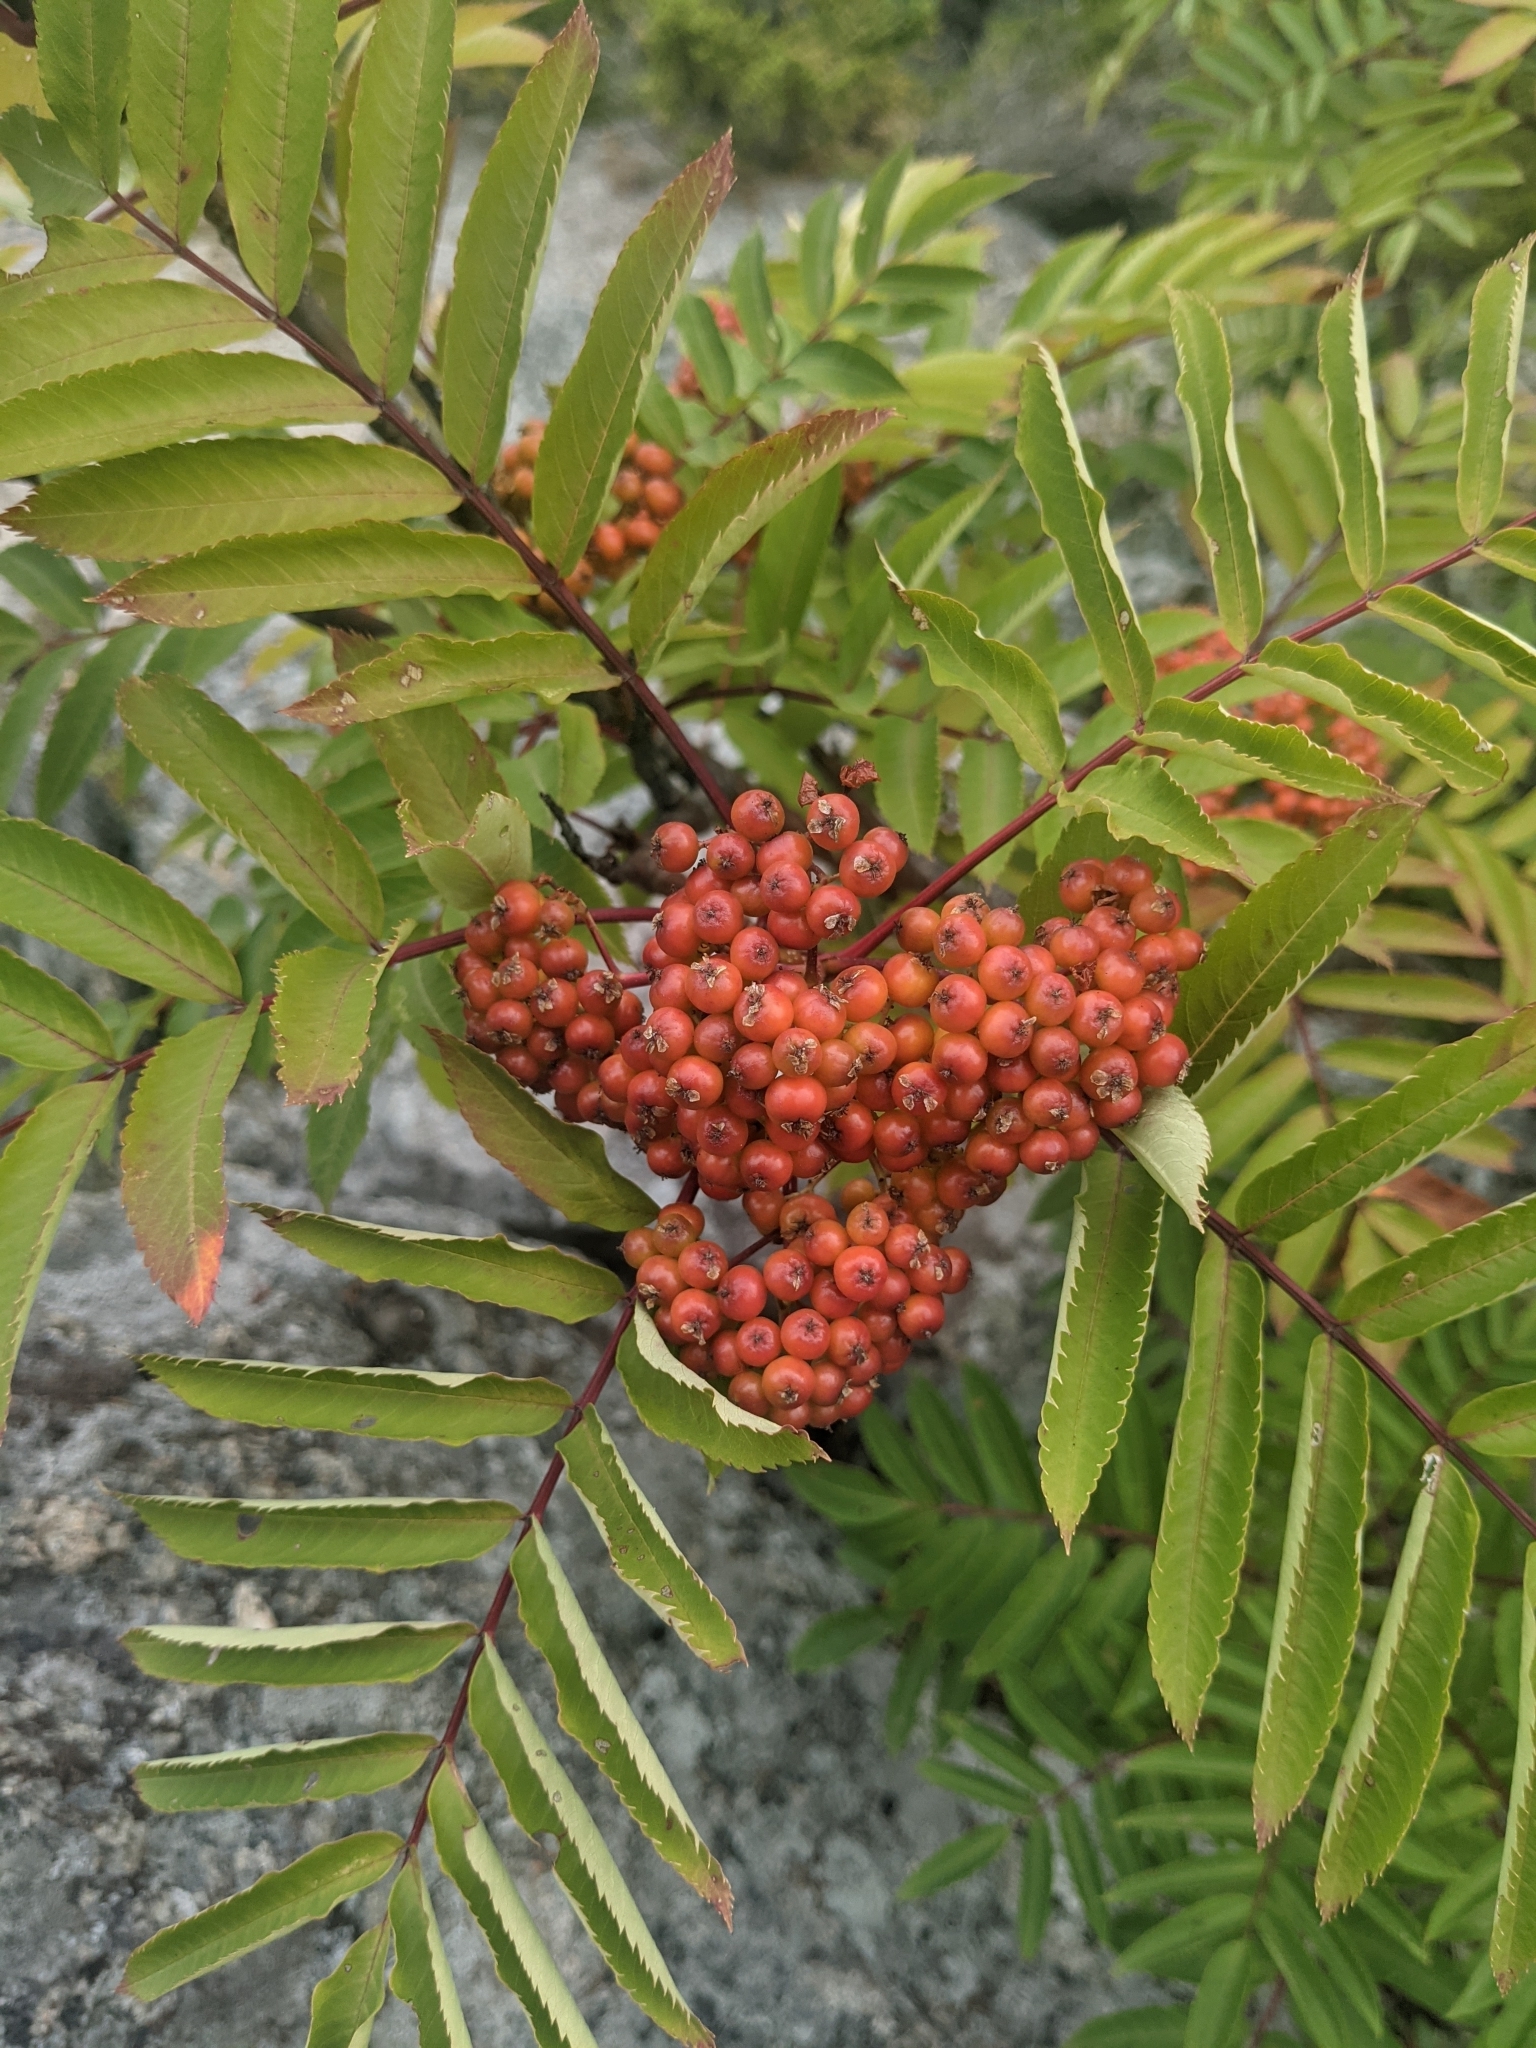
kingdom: Plantae
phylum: Tracheophyta
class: Magnoliopsida
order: Rosales
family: Rosaceae
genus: Sorbus
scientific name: Sorbus americana
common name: American mountain-ash
